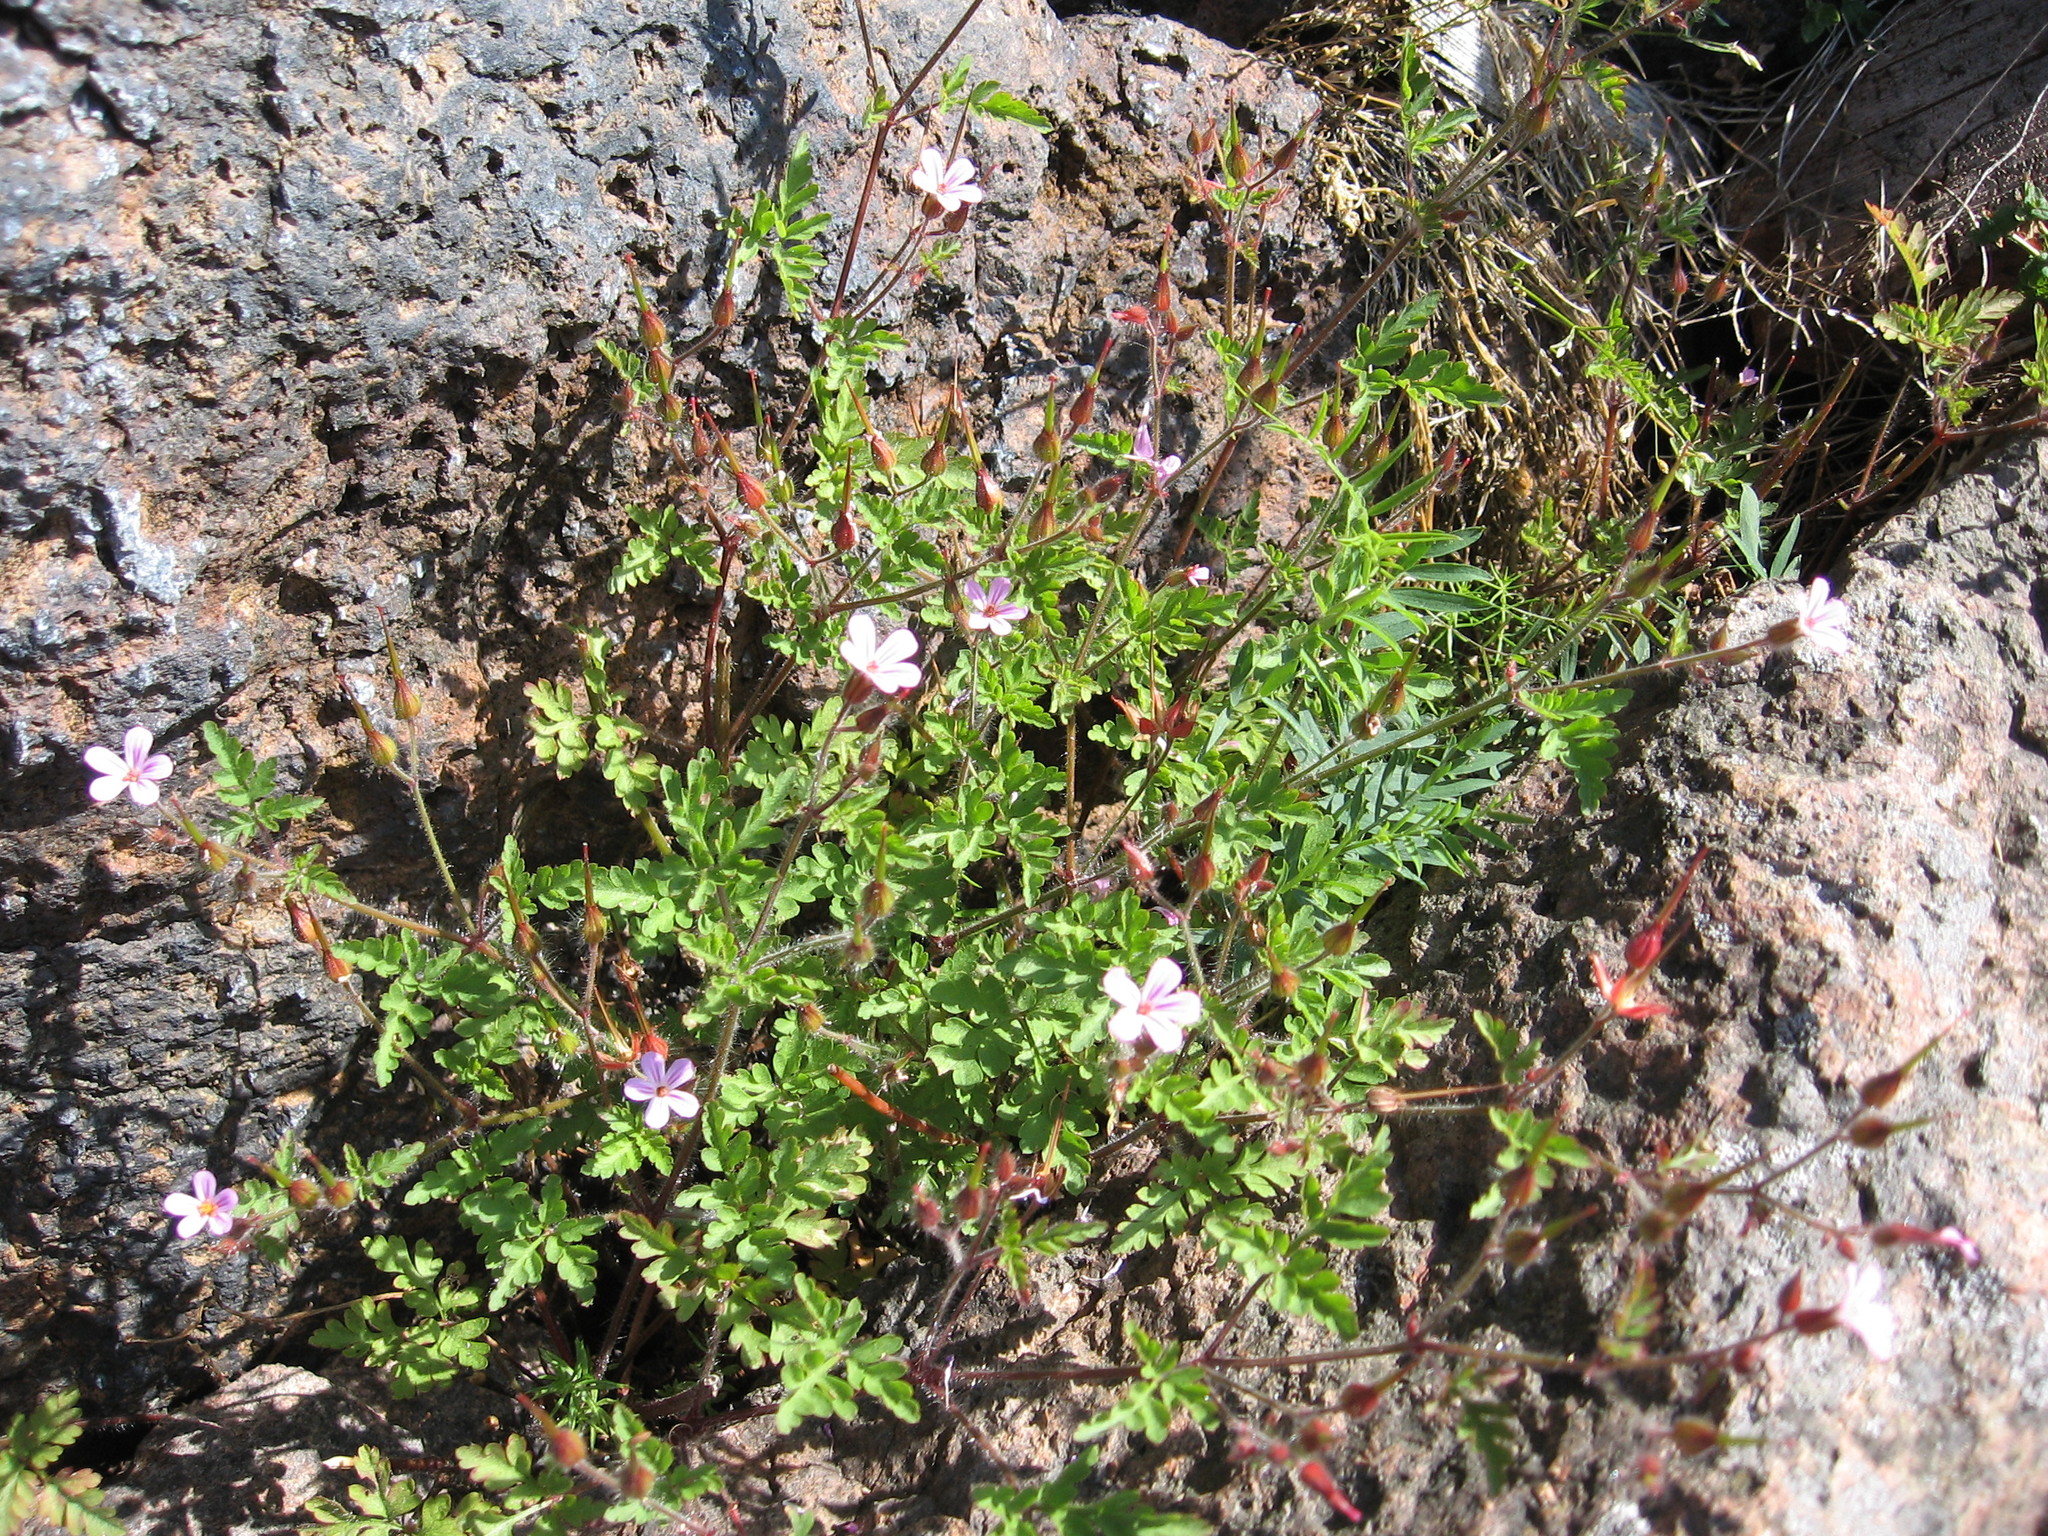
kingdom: Plantae
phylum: Tracheophyta
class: Magnoliopsida
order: Geraniales
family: Geraniaceae
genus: Geranium
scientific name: Geranium robertianum
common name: Herb-robert
